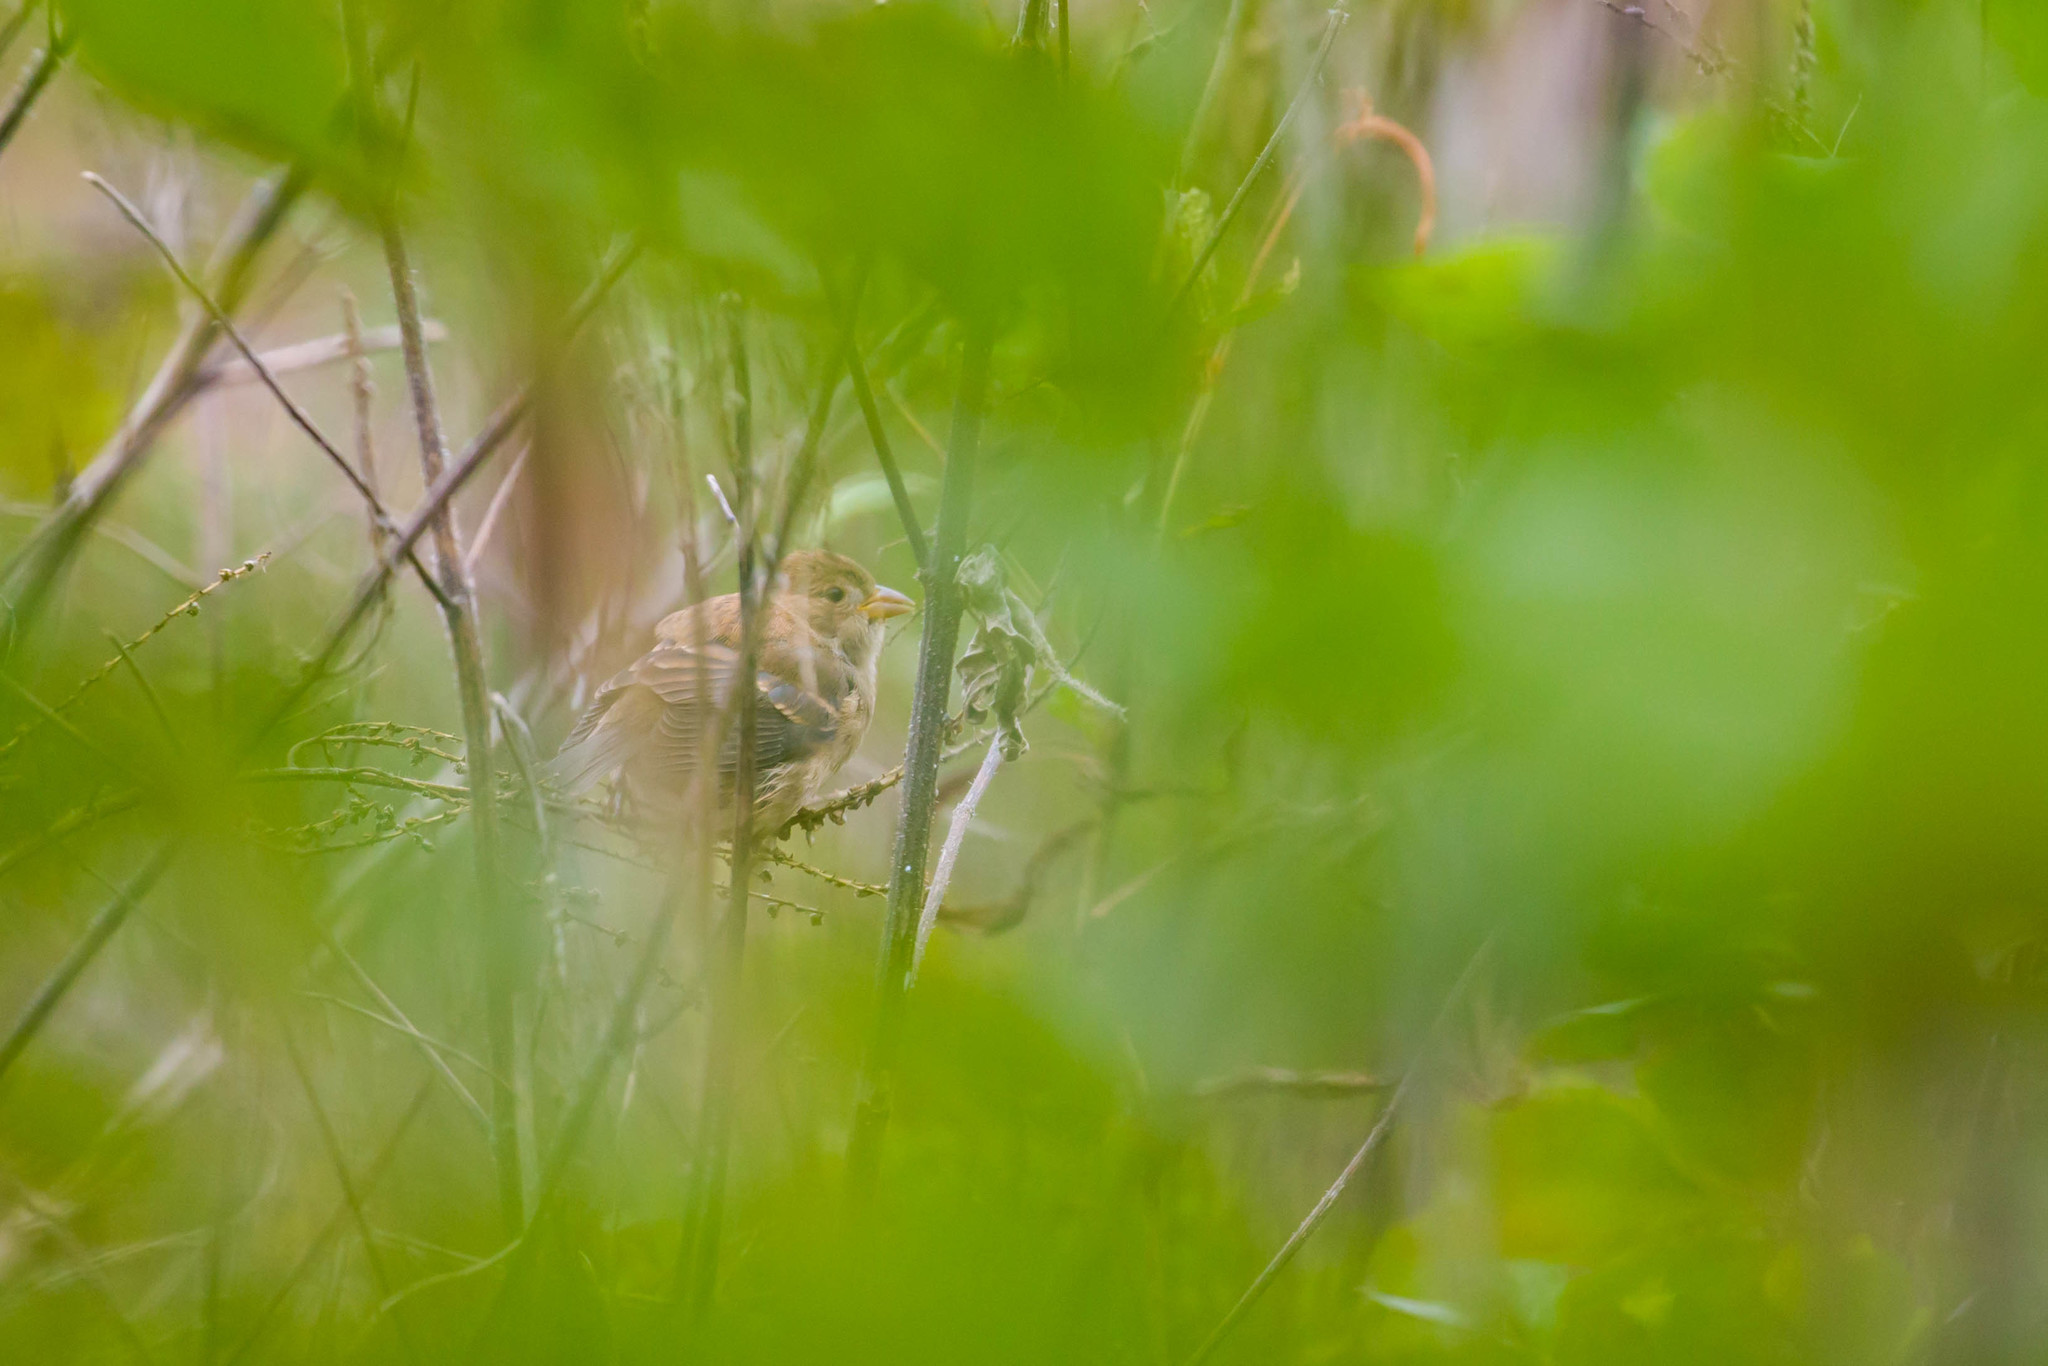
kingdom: Animalia
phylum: Chordata
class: Aves
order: Passeriformes
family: Cardinalidae
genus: Passerina
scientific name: Passerina cyanea
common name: Indigo bunting
